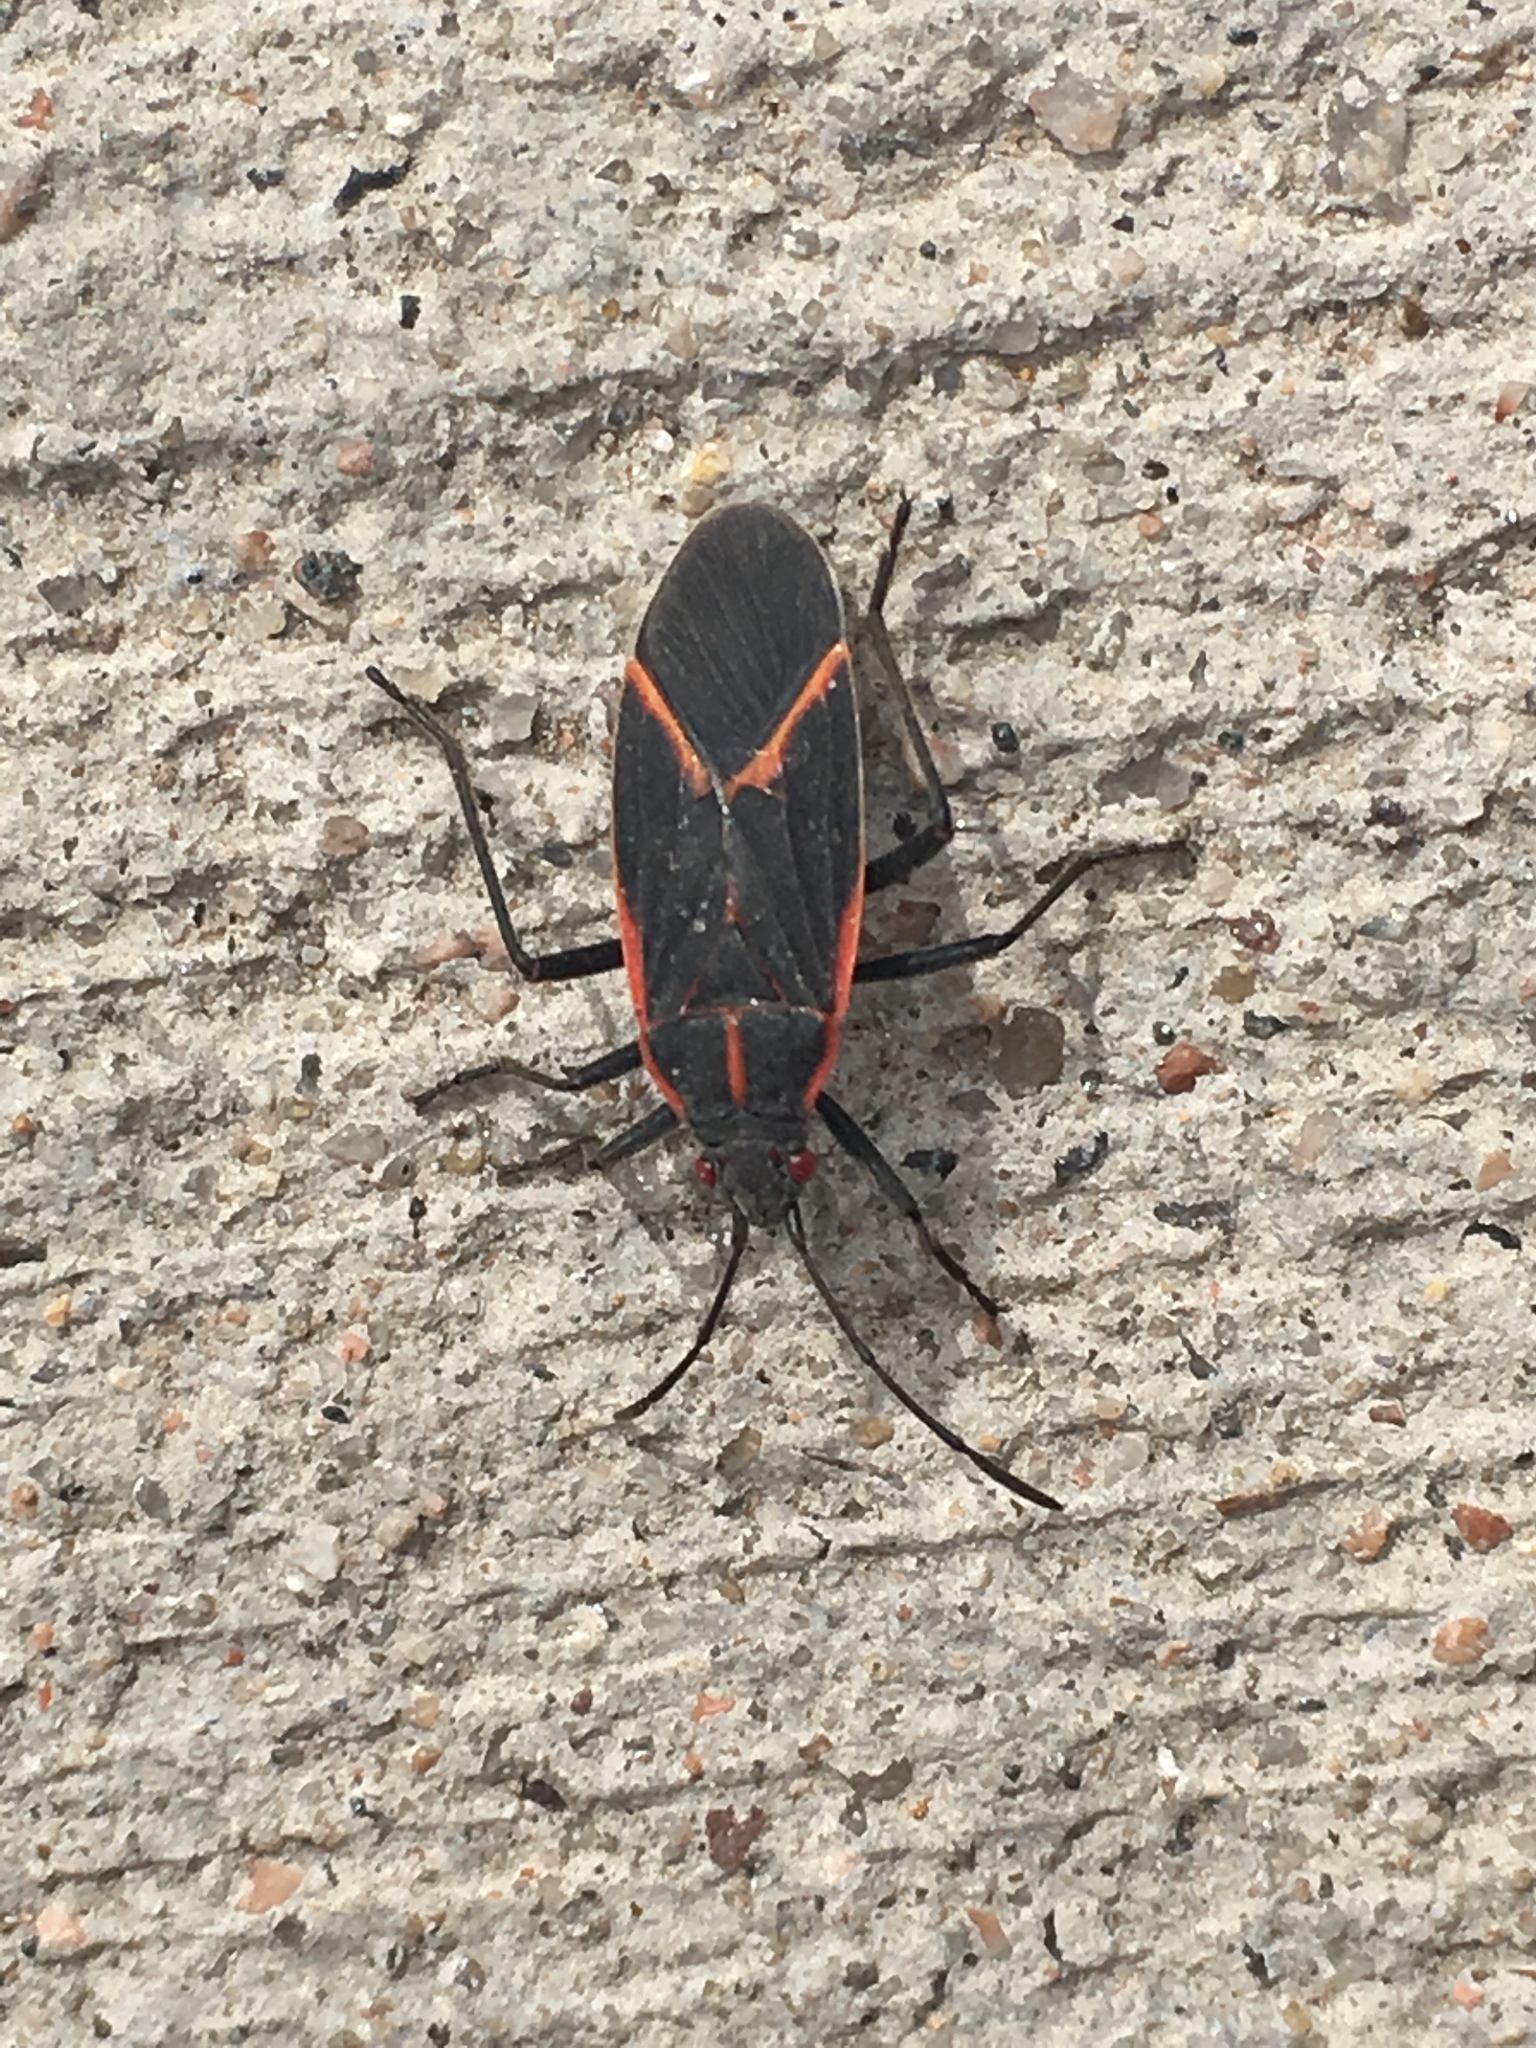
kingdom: Animalia
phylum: Arthropoda
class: Insecta
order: Hemiptera
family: Rhopalidae
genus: Boisea
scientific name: Boisea trivittata
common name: Boxelder bug
